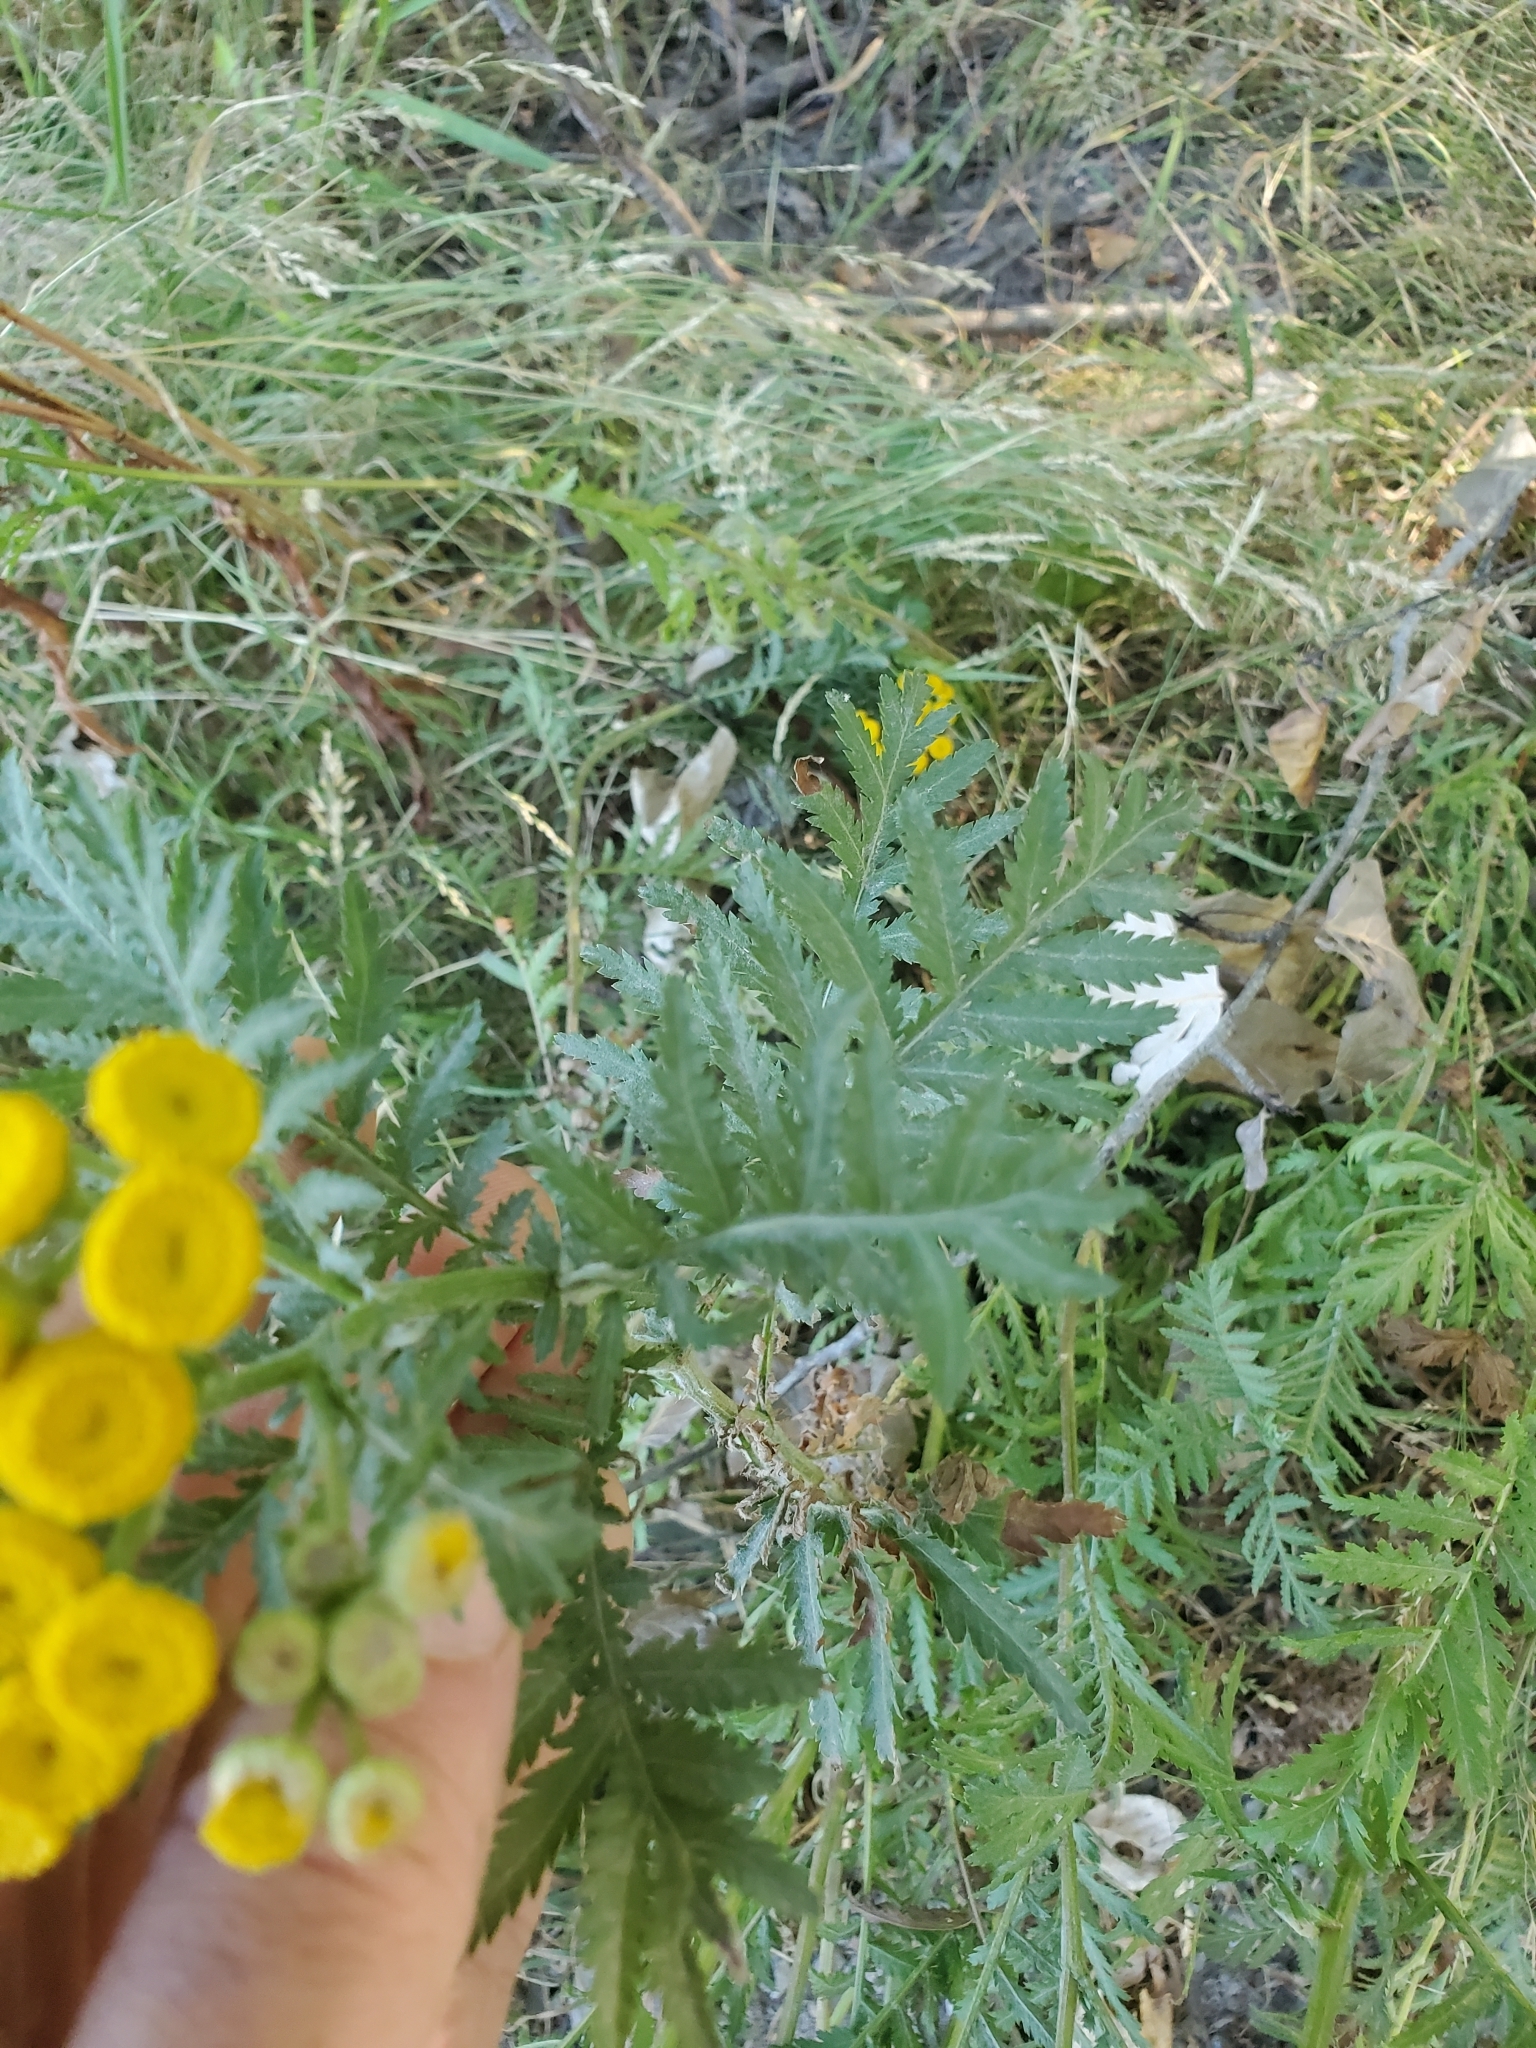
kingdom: Plantae
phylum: Tracheophyta
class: Magnoliopsida
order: Asterales
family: Asteraceae
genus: Tanacetum
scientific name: Tanacetum vulgare
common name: Common tansy
